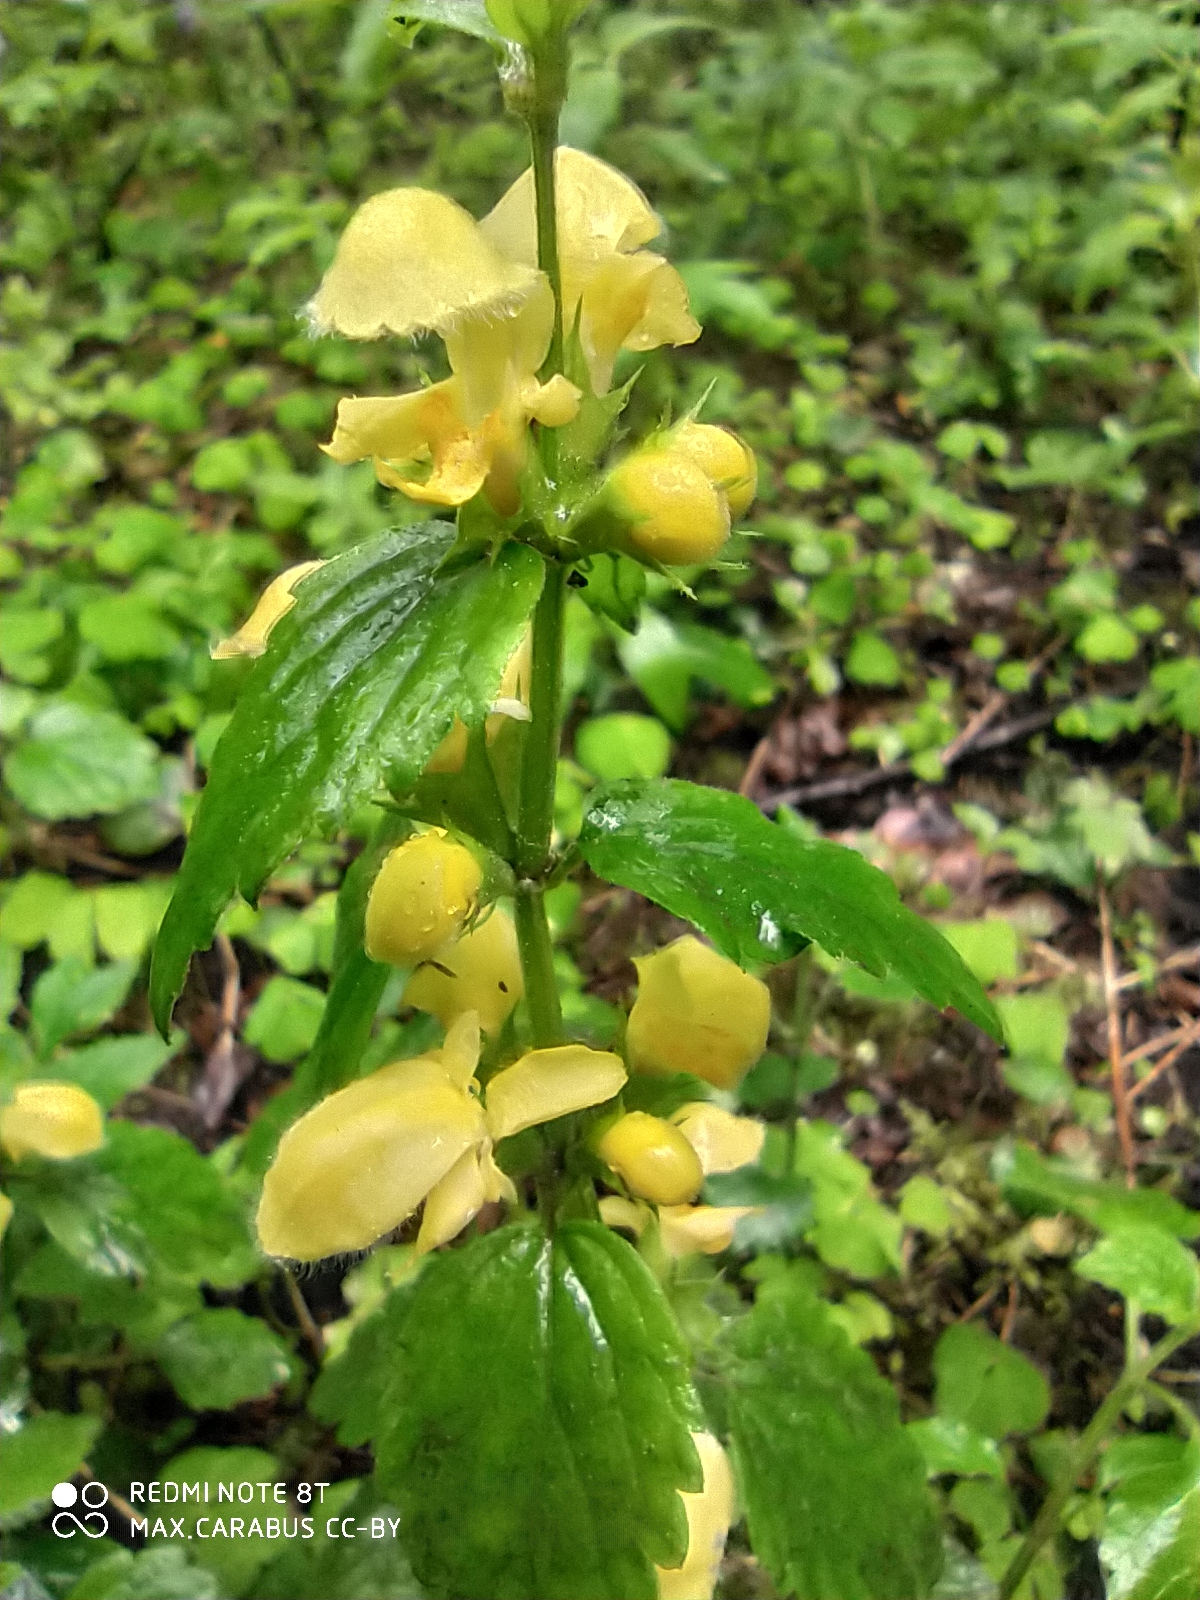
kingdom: Plantae
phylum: Tracheophyta
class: Magnoliopsida
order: Lamiales
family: Lamiaceae
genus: Lamium
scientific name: Lamium galeobdolon
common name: Yellow archangel
